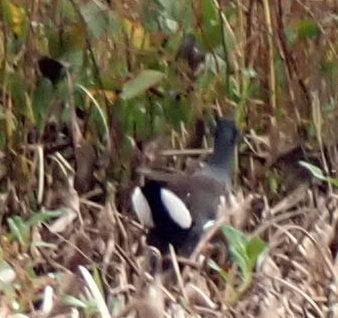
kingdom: Animalia
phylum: Chordata
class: Aves
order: Gruiformes
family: Rallidae
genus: Gallinula
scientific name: Gallinula chloropus
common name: Common moorhen
